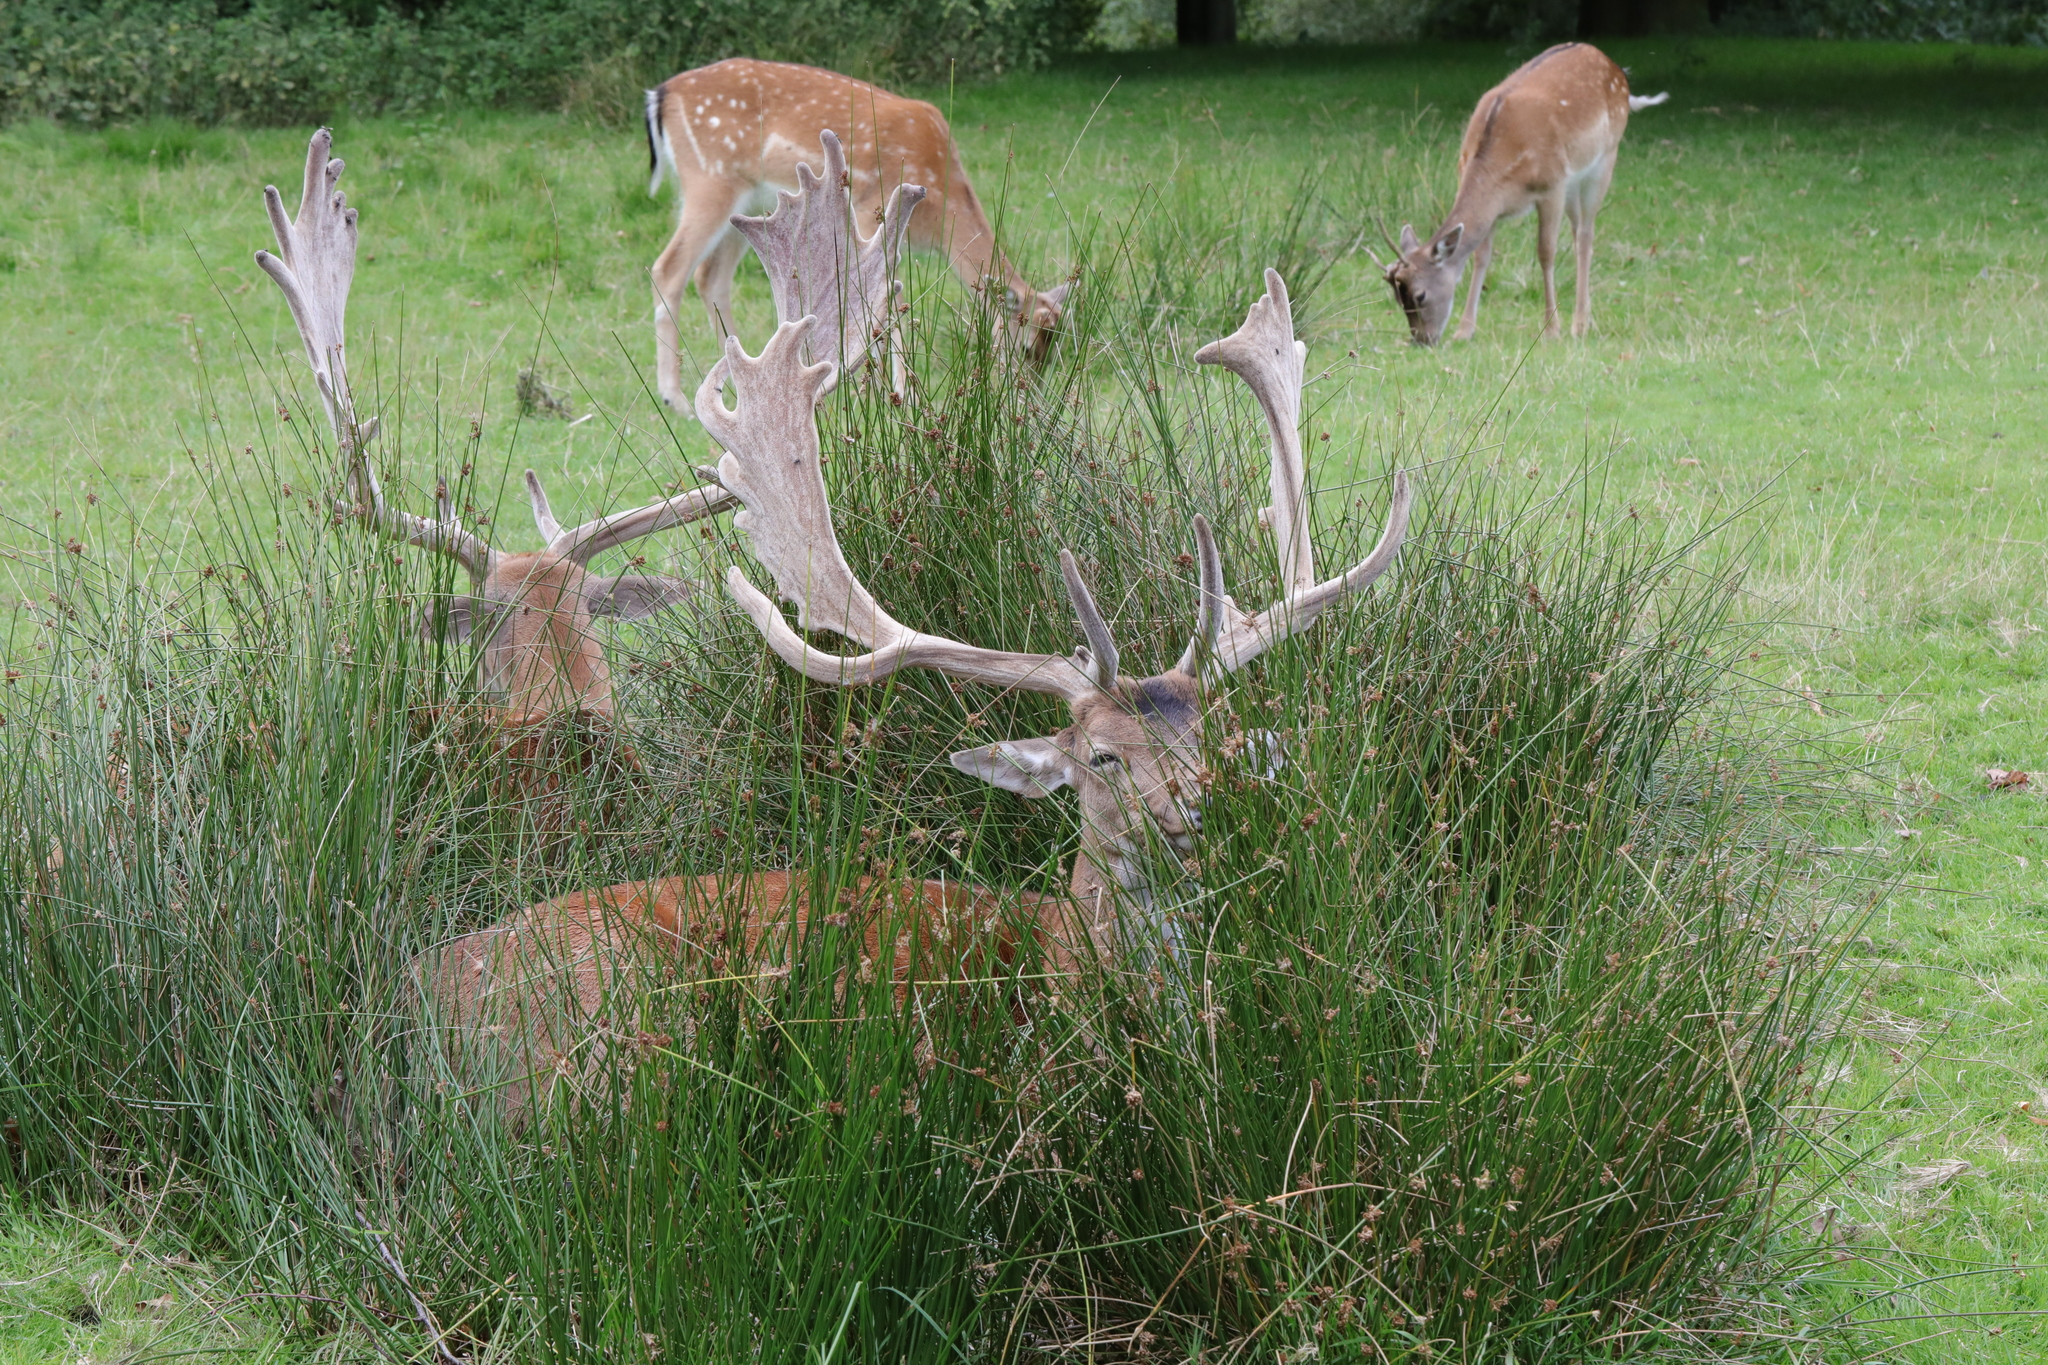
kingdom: Animalia
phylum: Chordata
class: Mammalia
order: Artiodactyla
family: Cervidae
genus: Dama
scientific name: Dama dama
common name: Fallow deer
